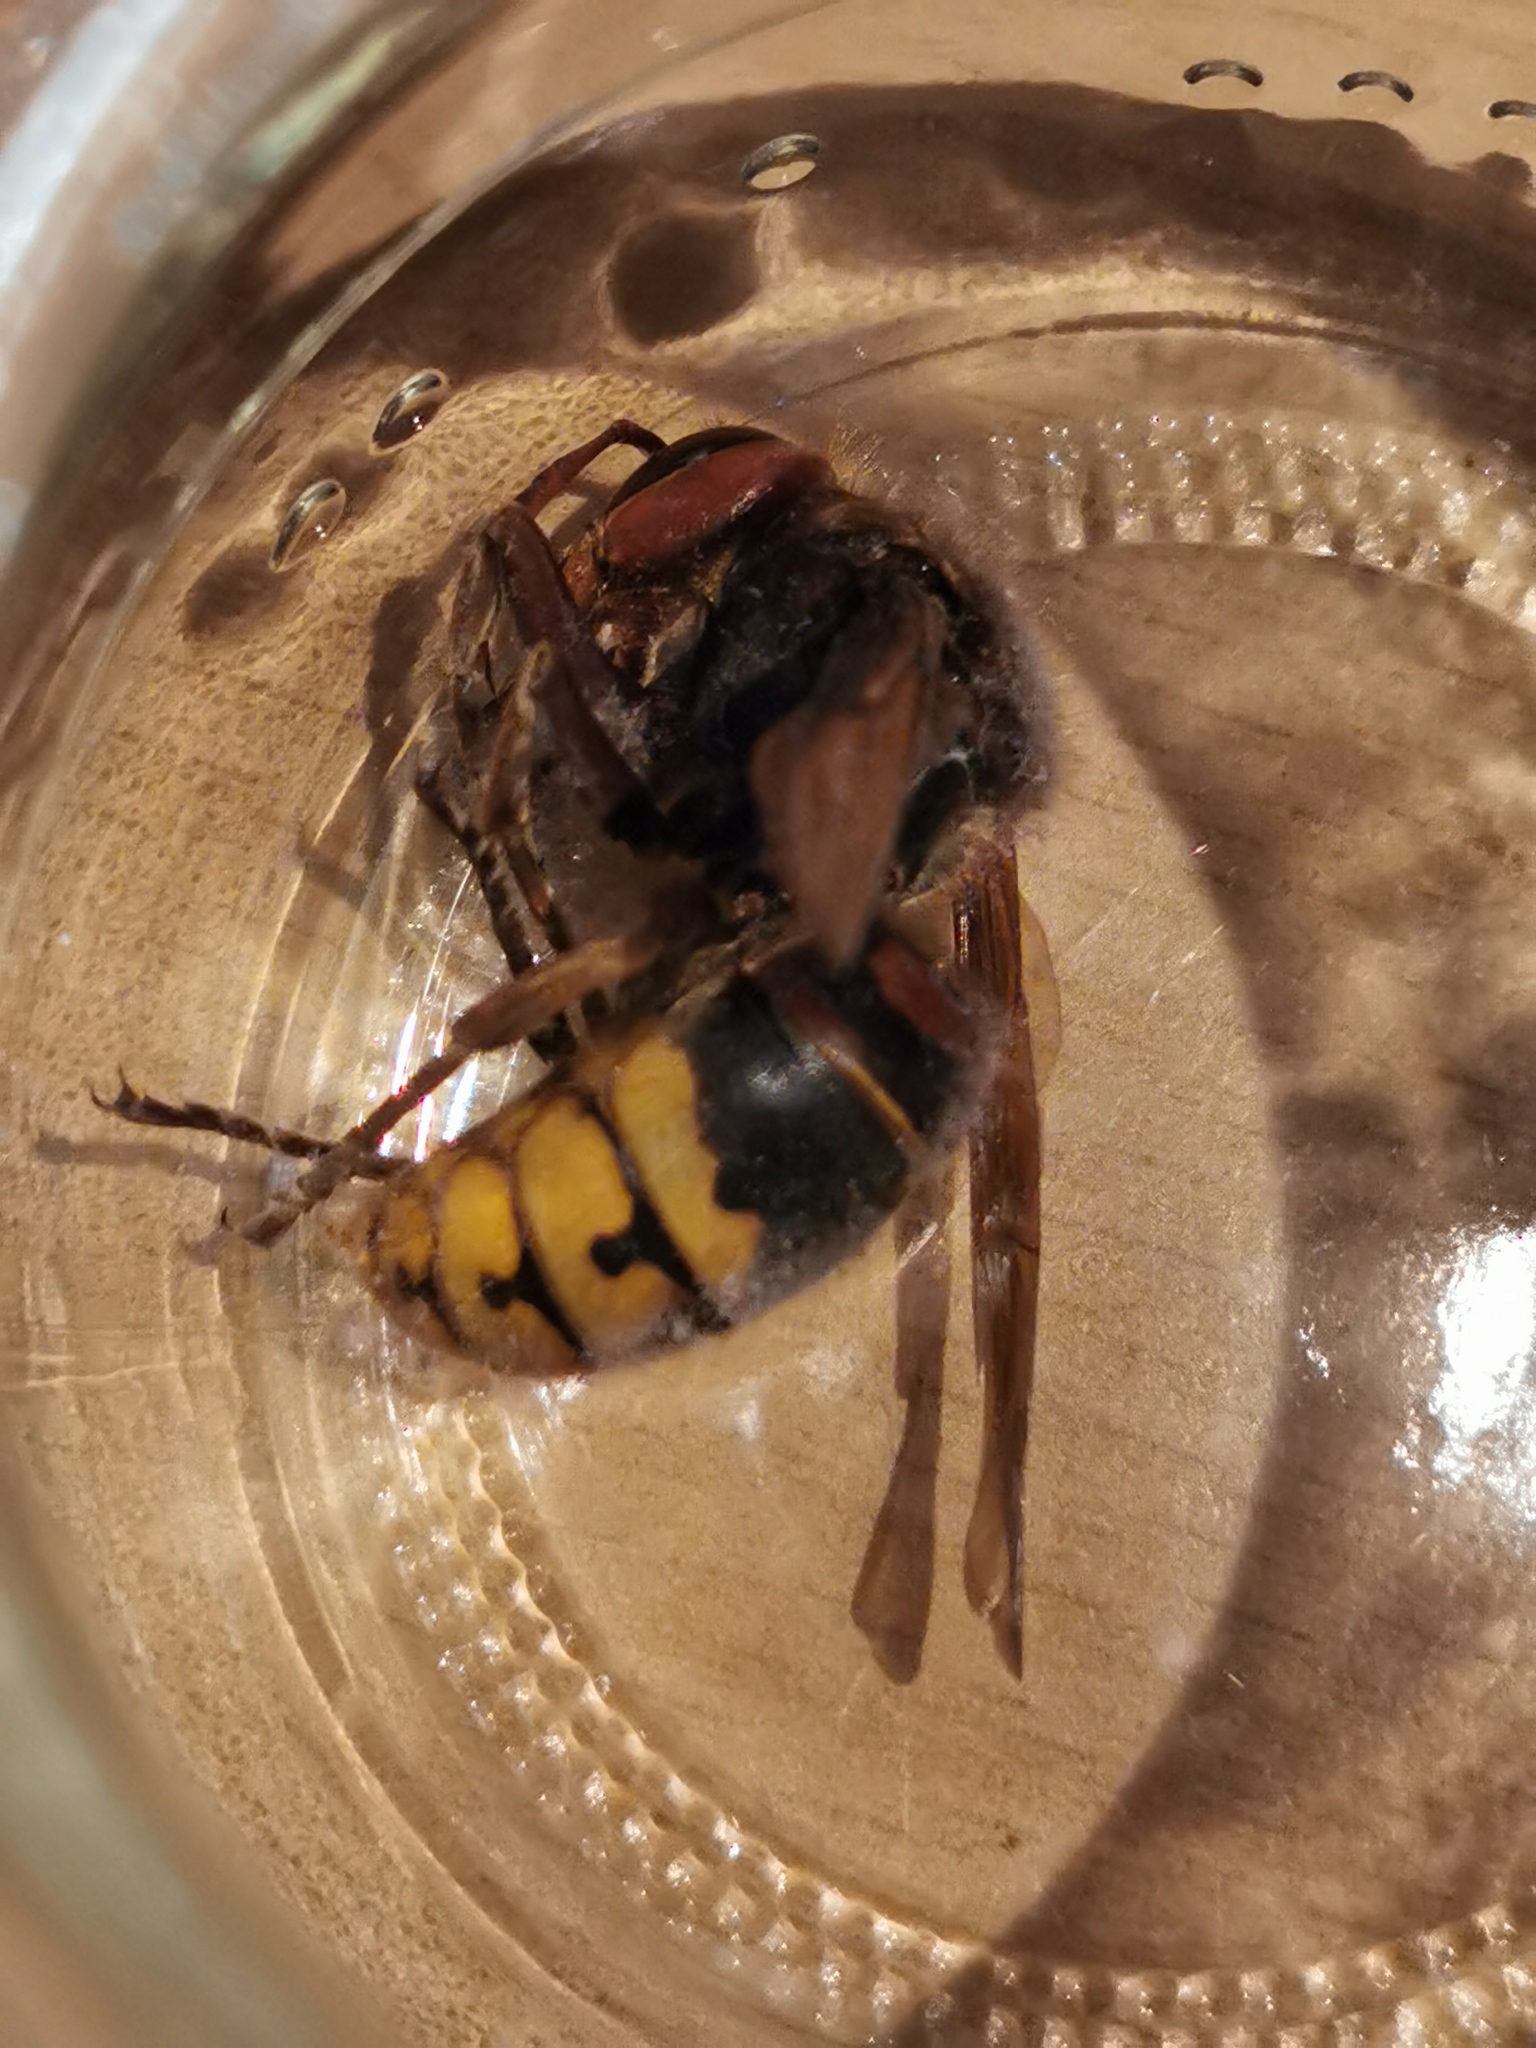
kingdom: Animalia
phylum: Arthropoda
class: Insecta
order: Hymenoptera
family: Vespidae
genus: Vespa
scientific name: Vespa crabro
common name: Hornet
